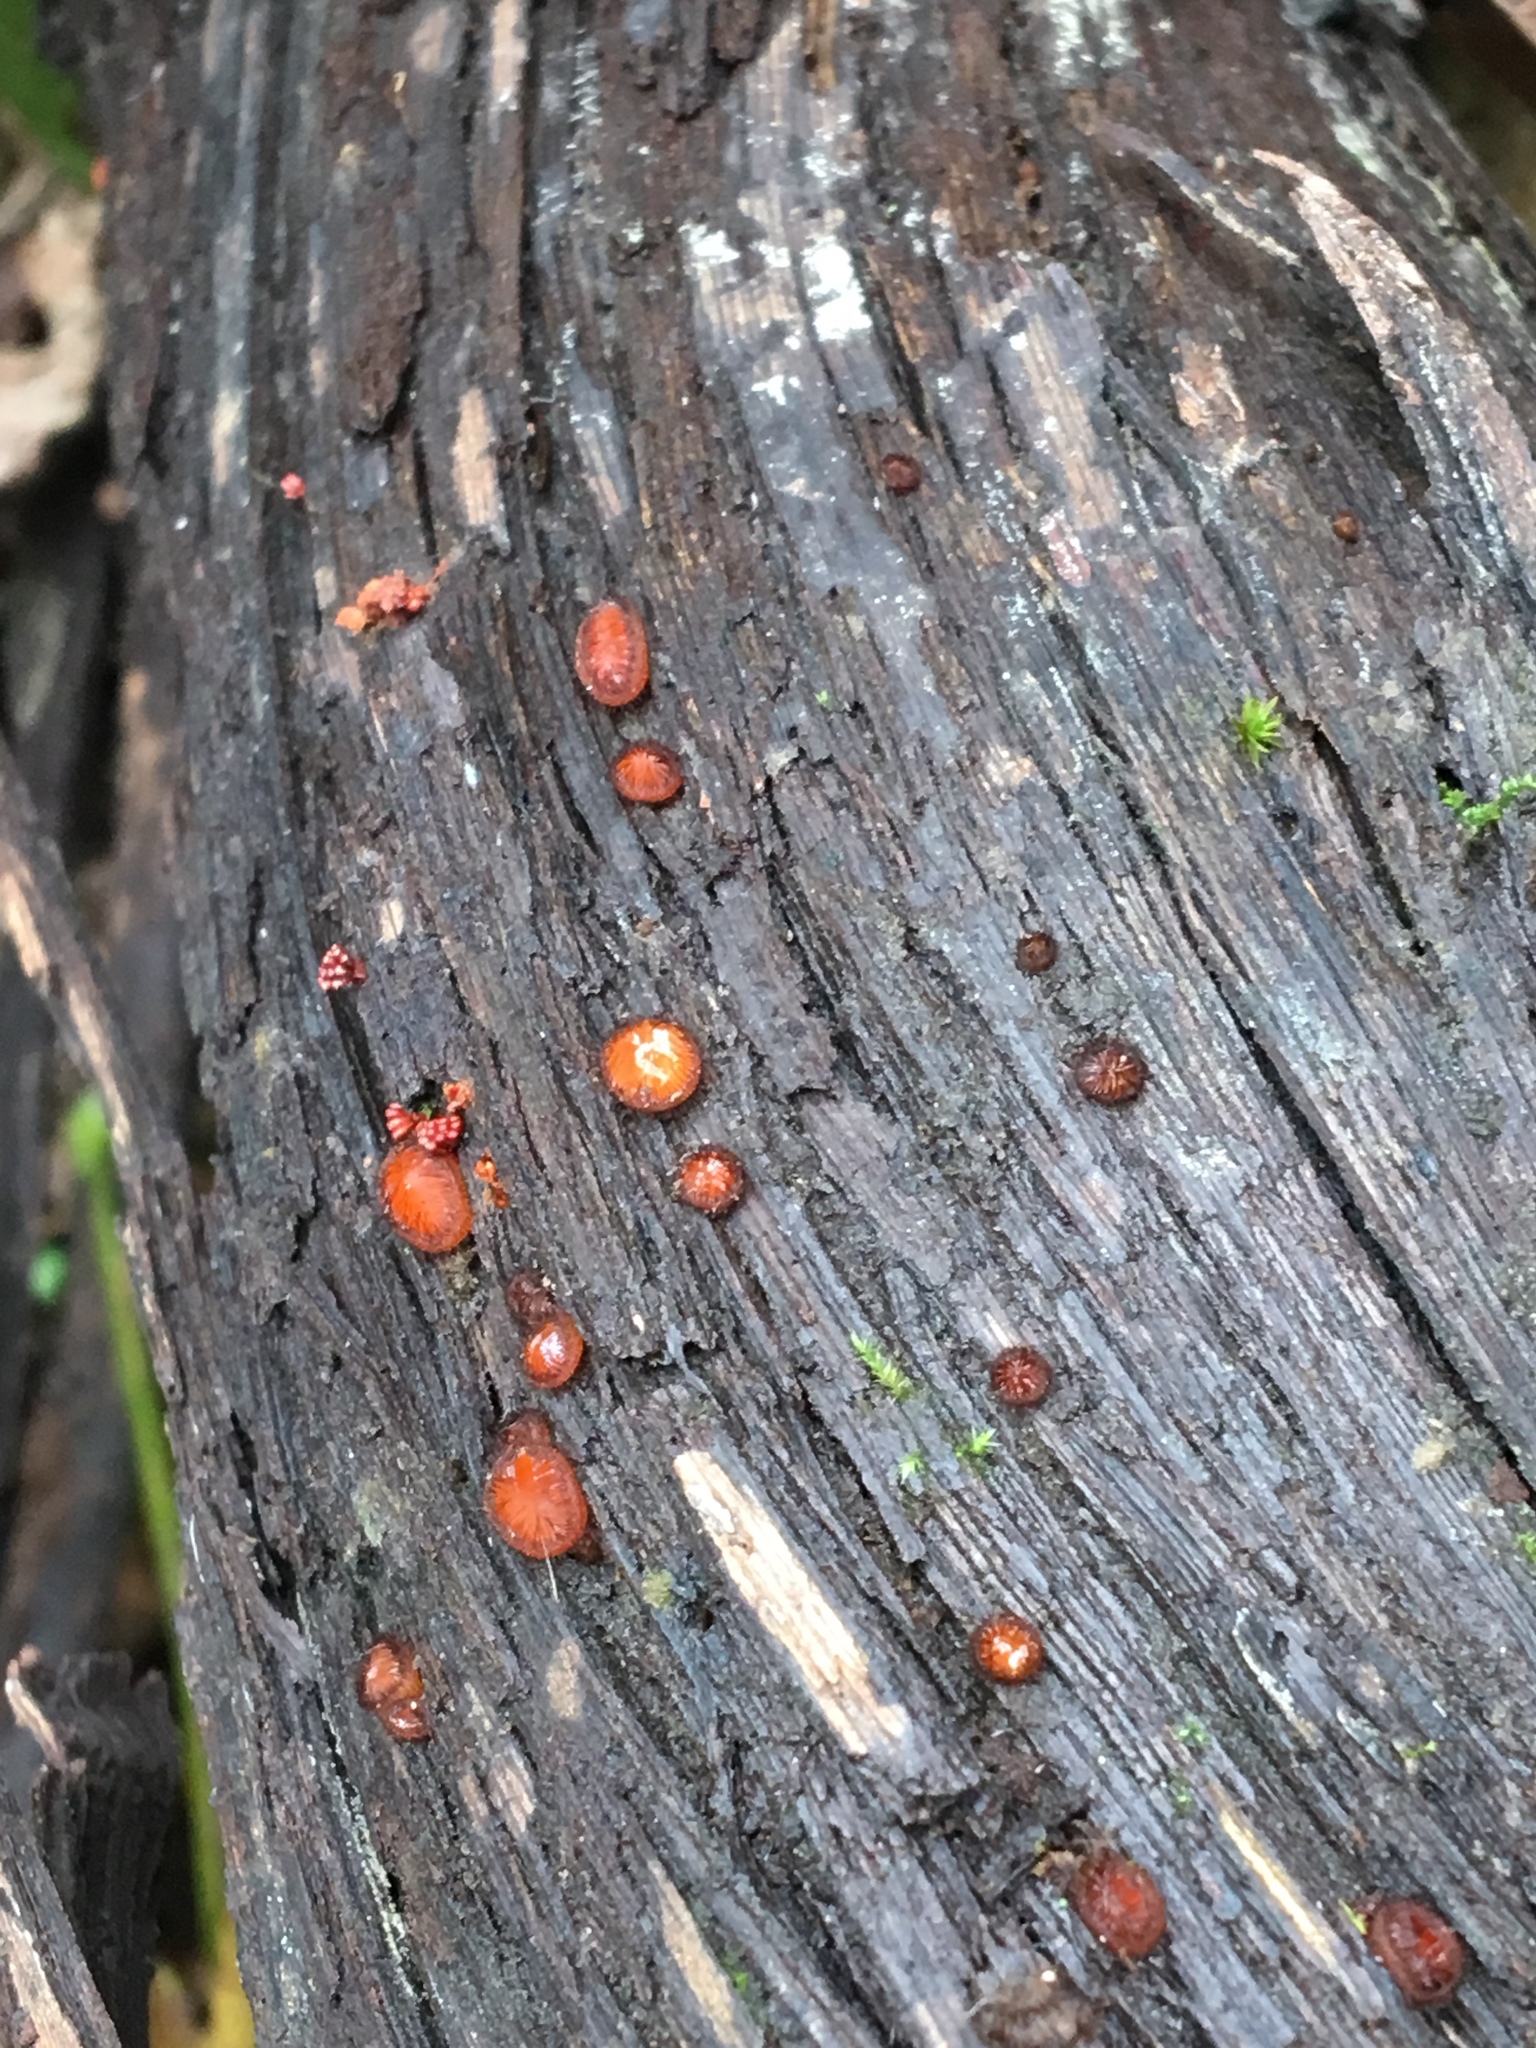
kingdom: Fungi
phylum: Ascomycota
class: Pezizomycetes
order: Pezizales
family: Pyronemataceae
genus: Scutellinia
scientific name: Scutellinia scutellata
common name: Common eyelash
